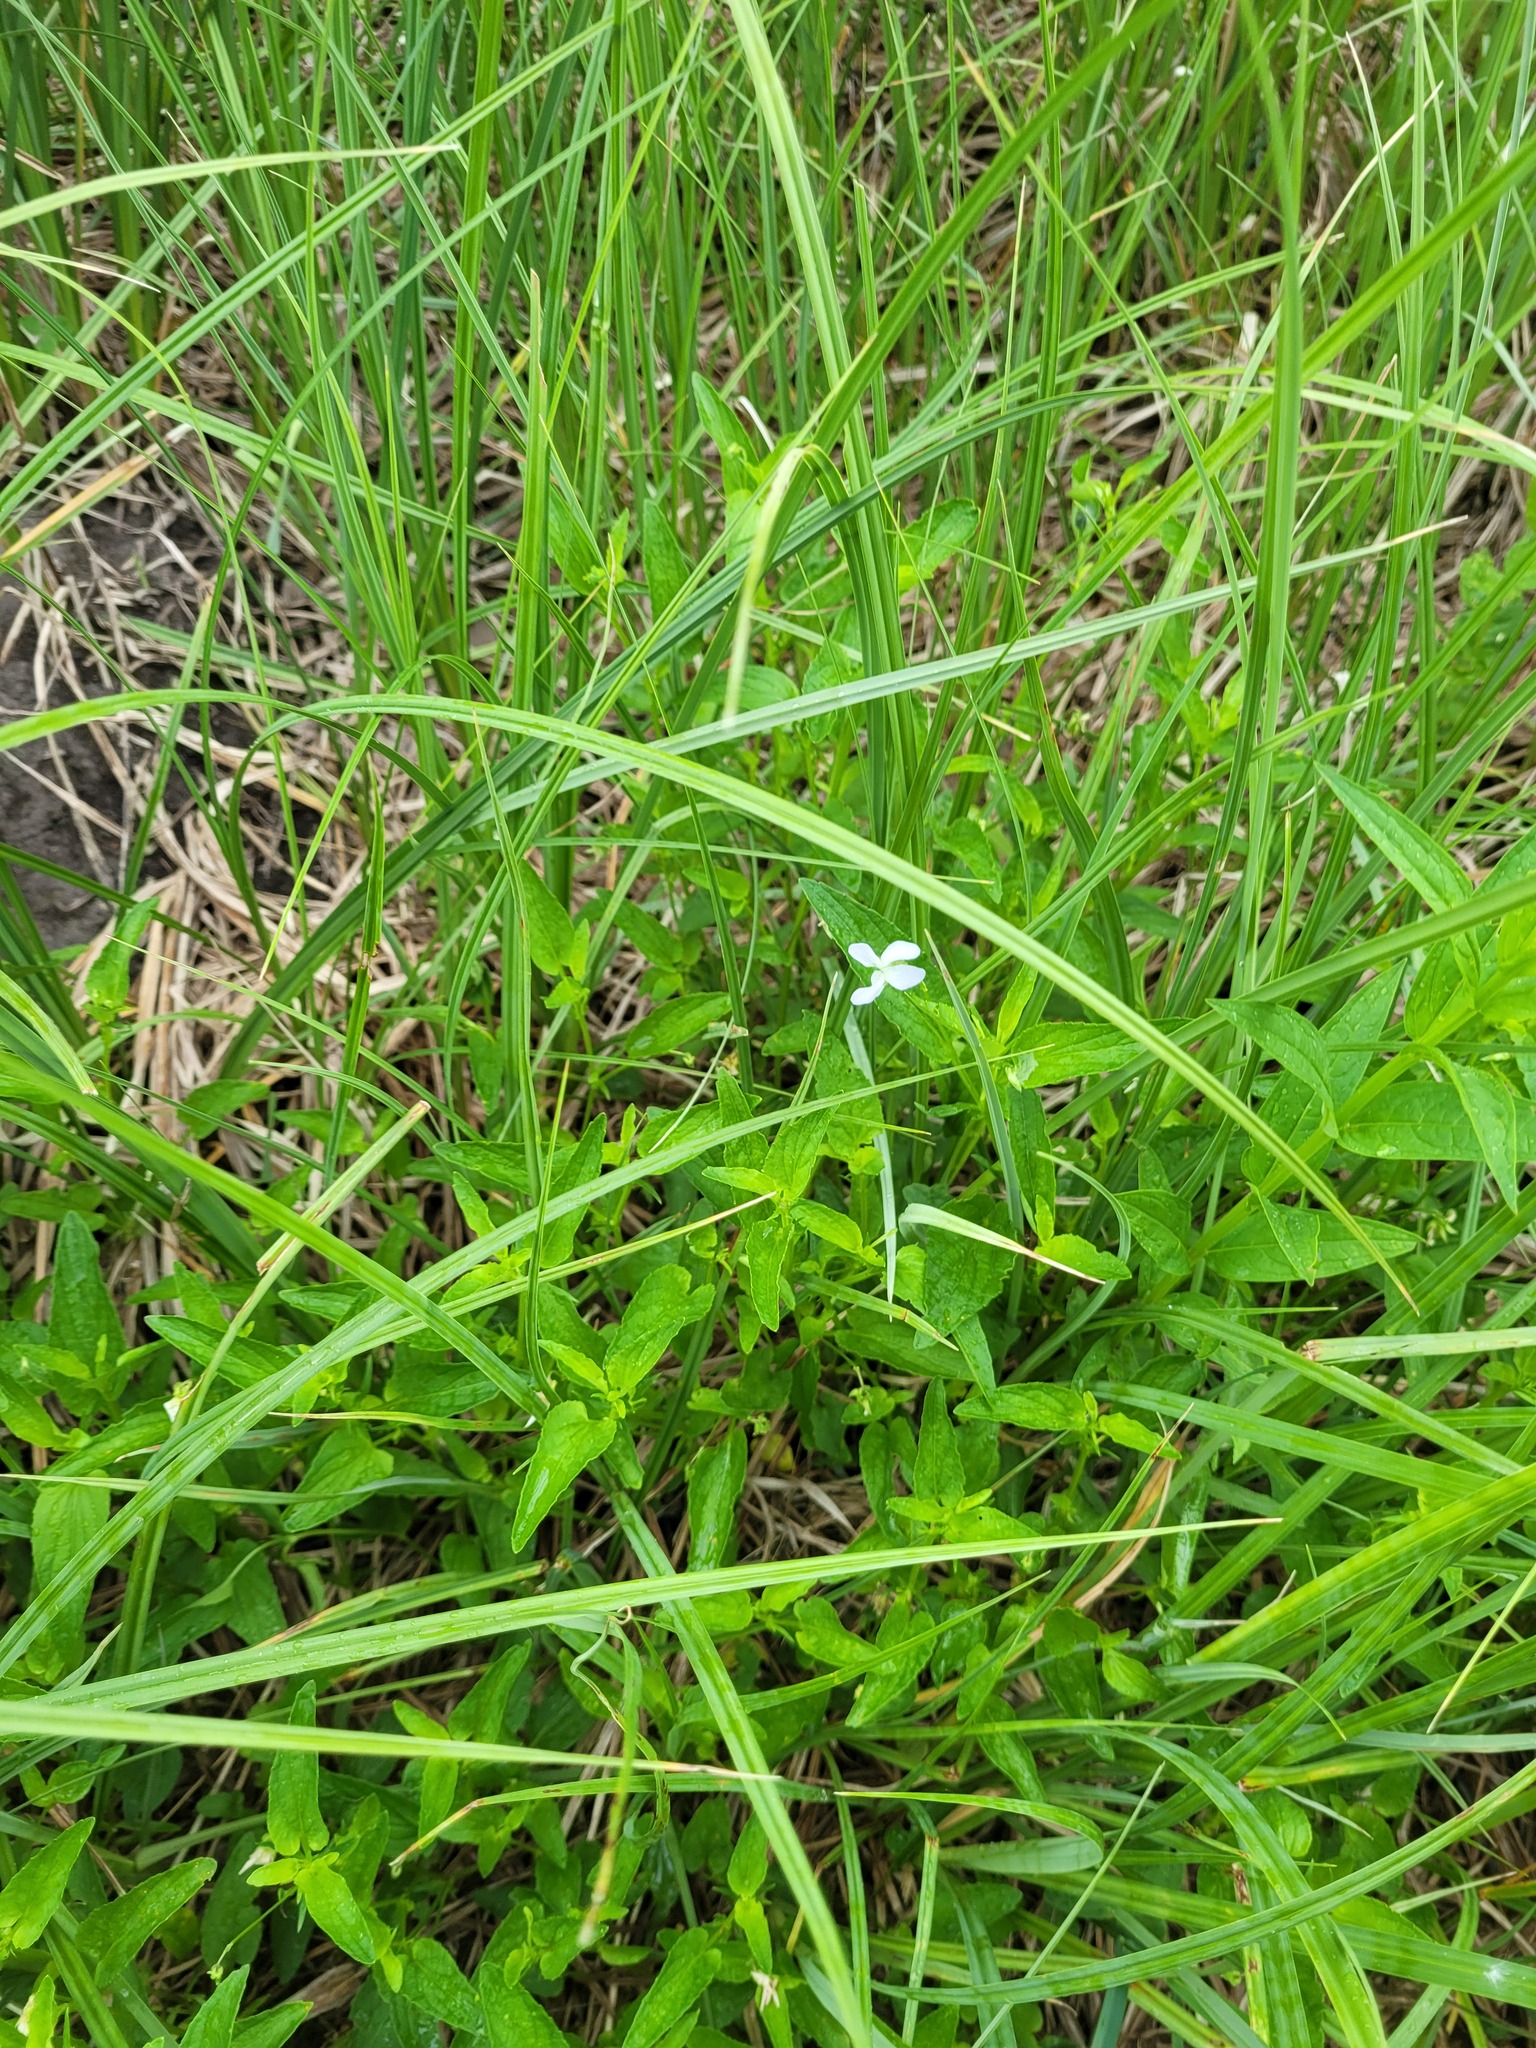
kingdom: Plantae
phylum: Tracheophyta
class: Magnoliopsida
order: Malpighiales
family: Violaceae
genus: Viola
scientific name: Viola stagnina
